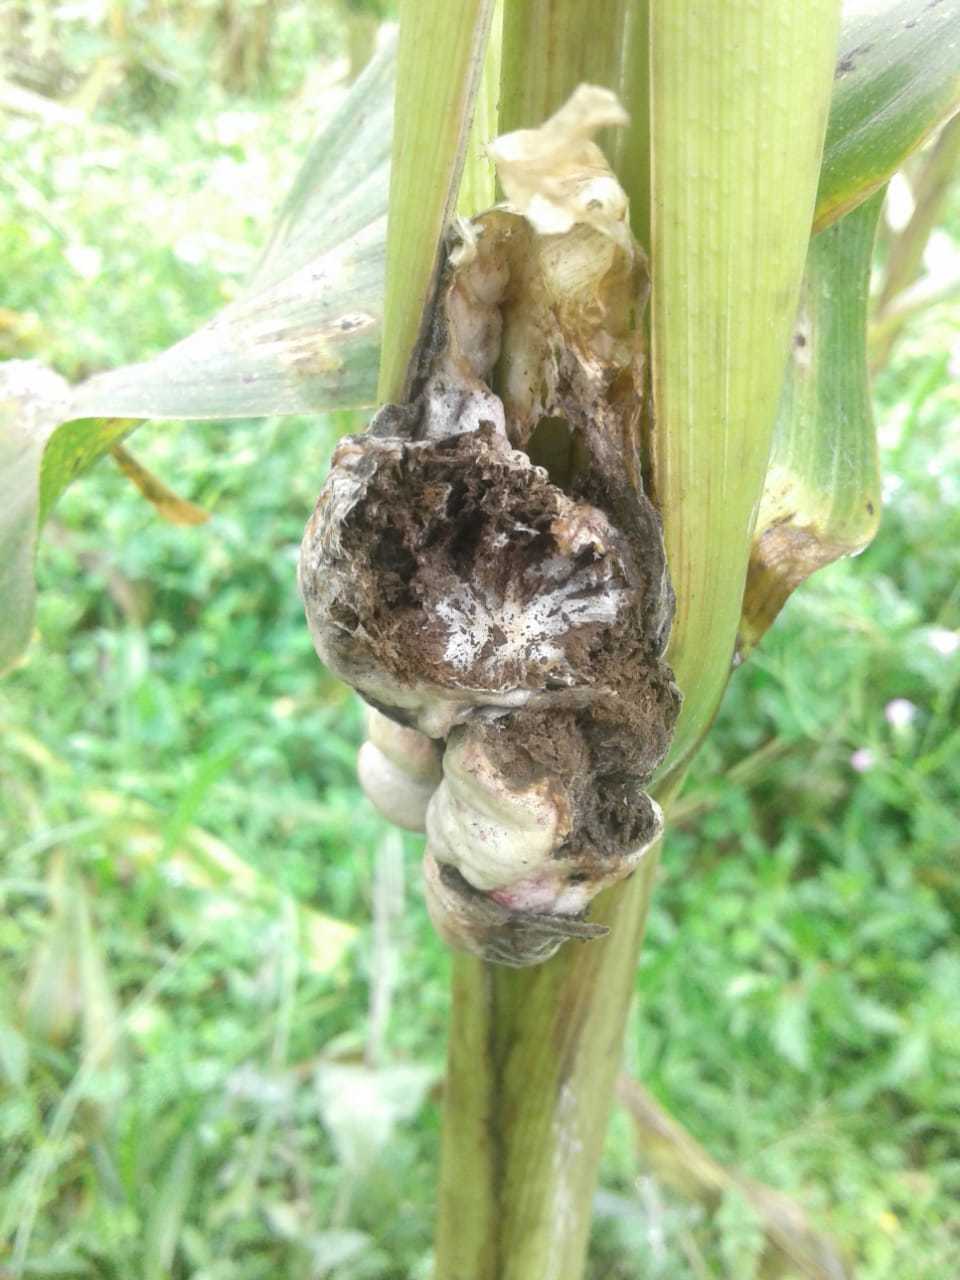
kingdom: Fungi
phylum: Basidiomycota
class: Ustilaginomycetes
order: Ustilaginales
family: Ustilaginaceae
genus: Mycosarcoma
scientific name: Mycosarcoma maydis
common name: Corn smut
